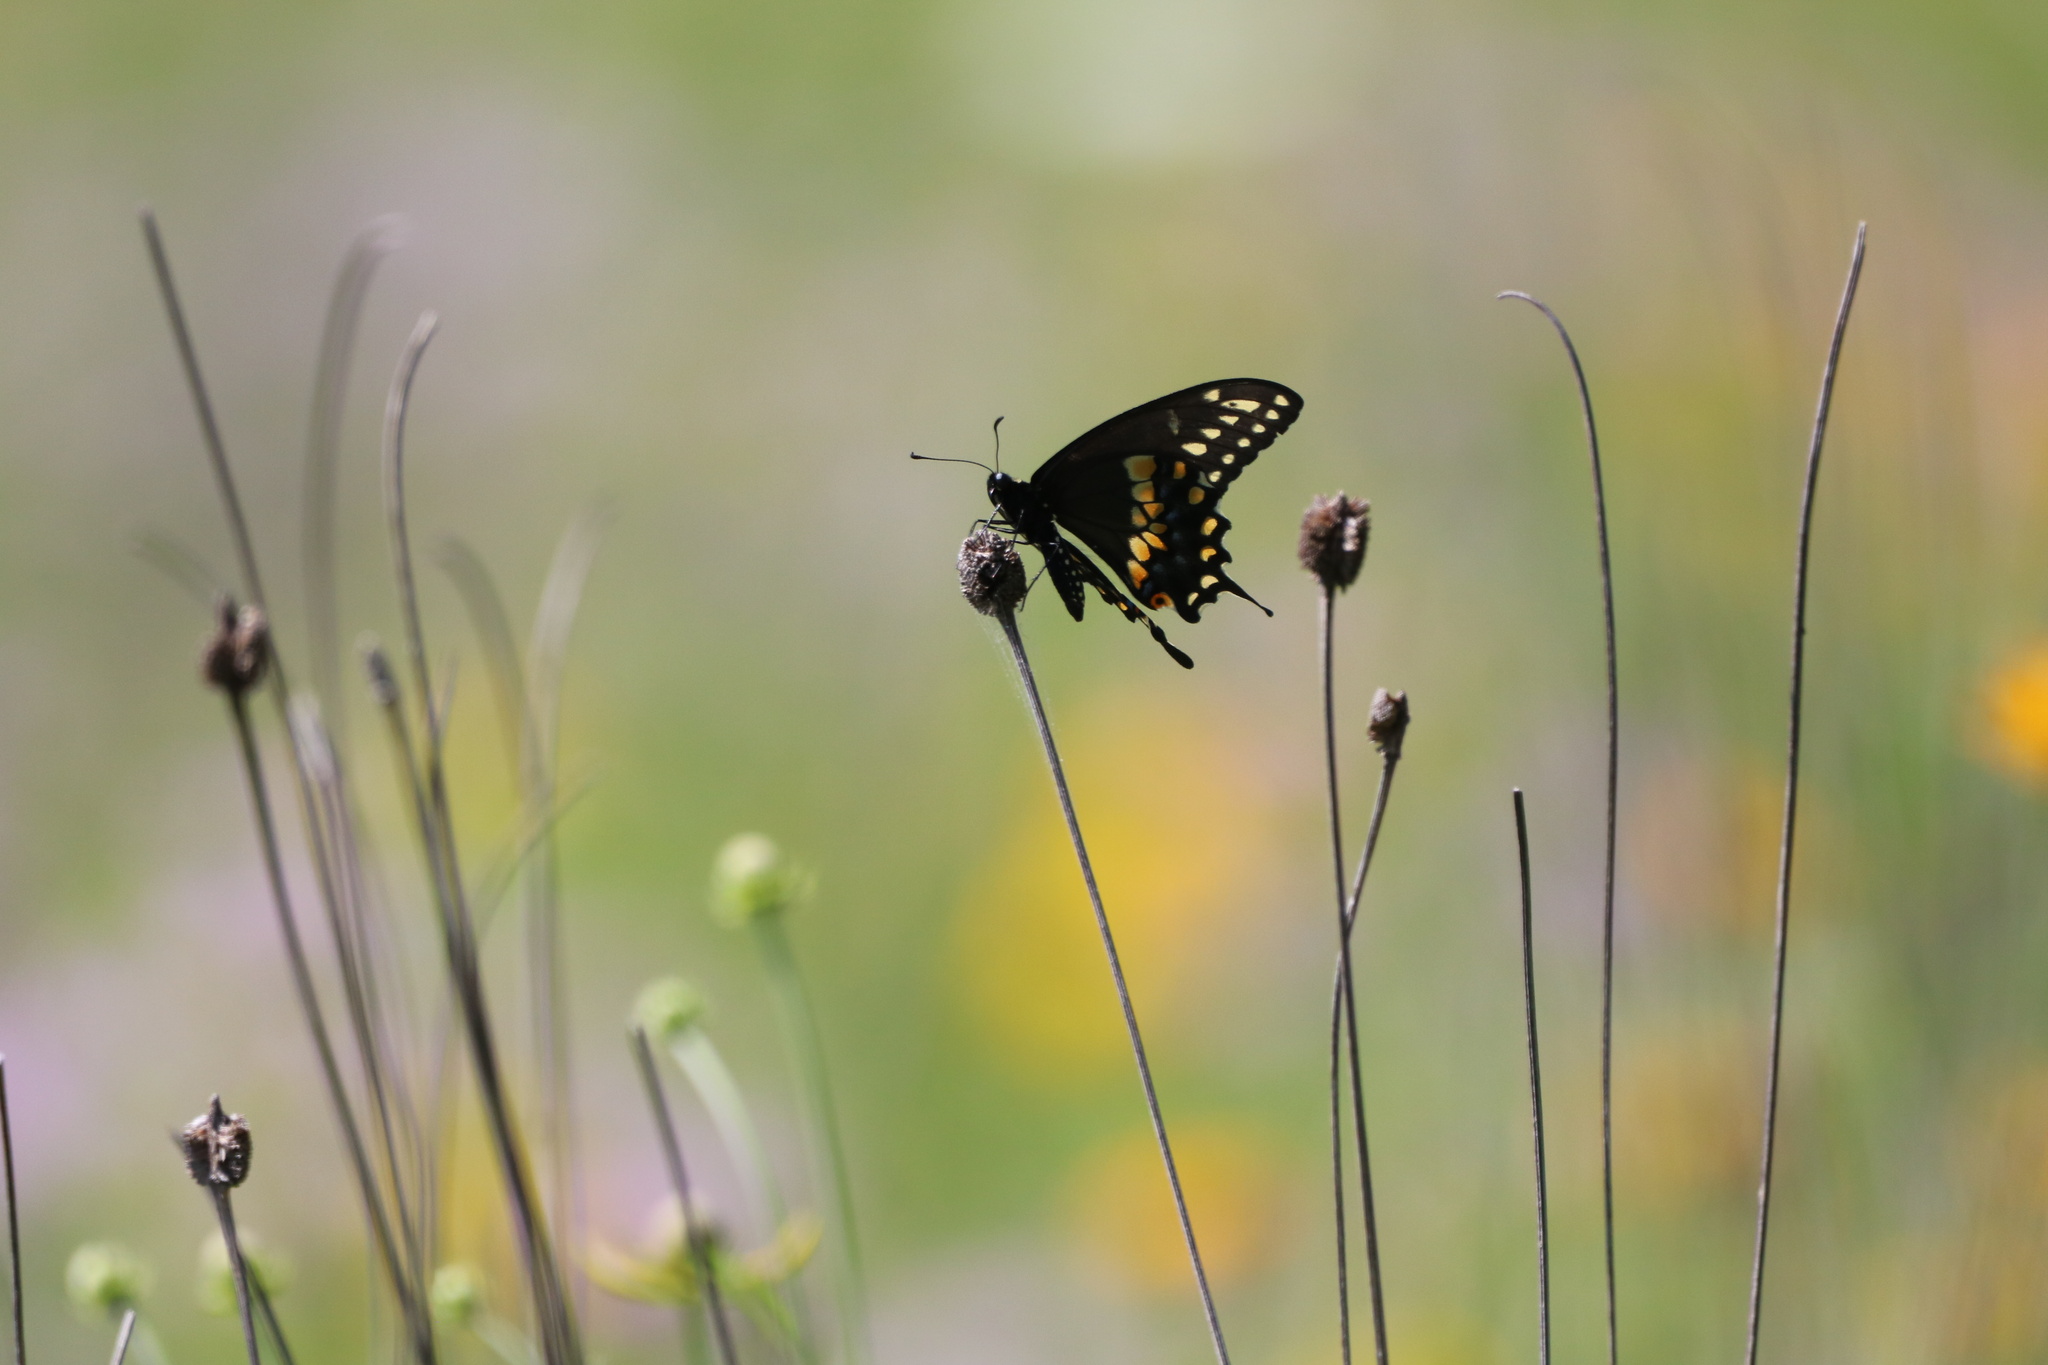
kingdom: Animalia
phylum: Arthropoda
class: Insecta
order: Lepidoptera
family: Papilionidae
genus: Papilio
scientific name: Papilio polyxenes
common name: Black swallowtail
